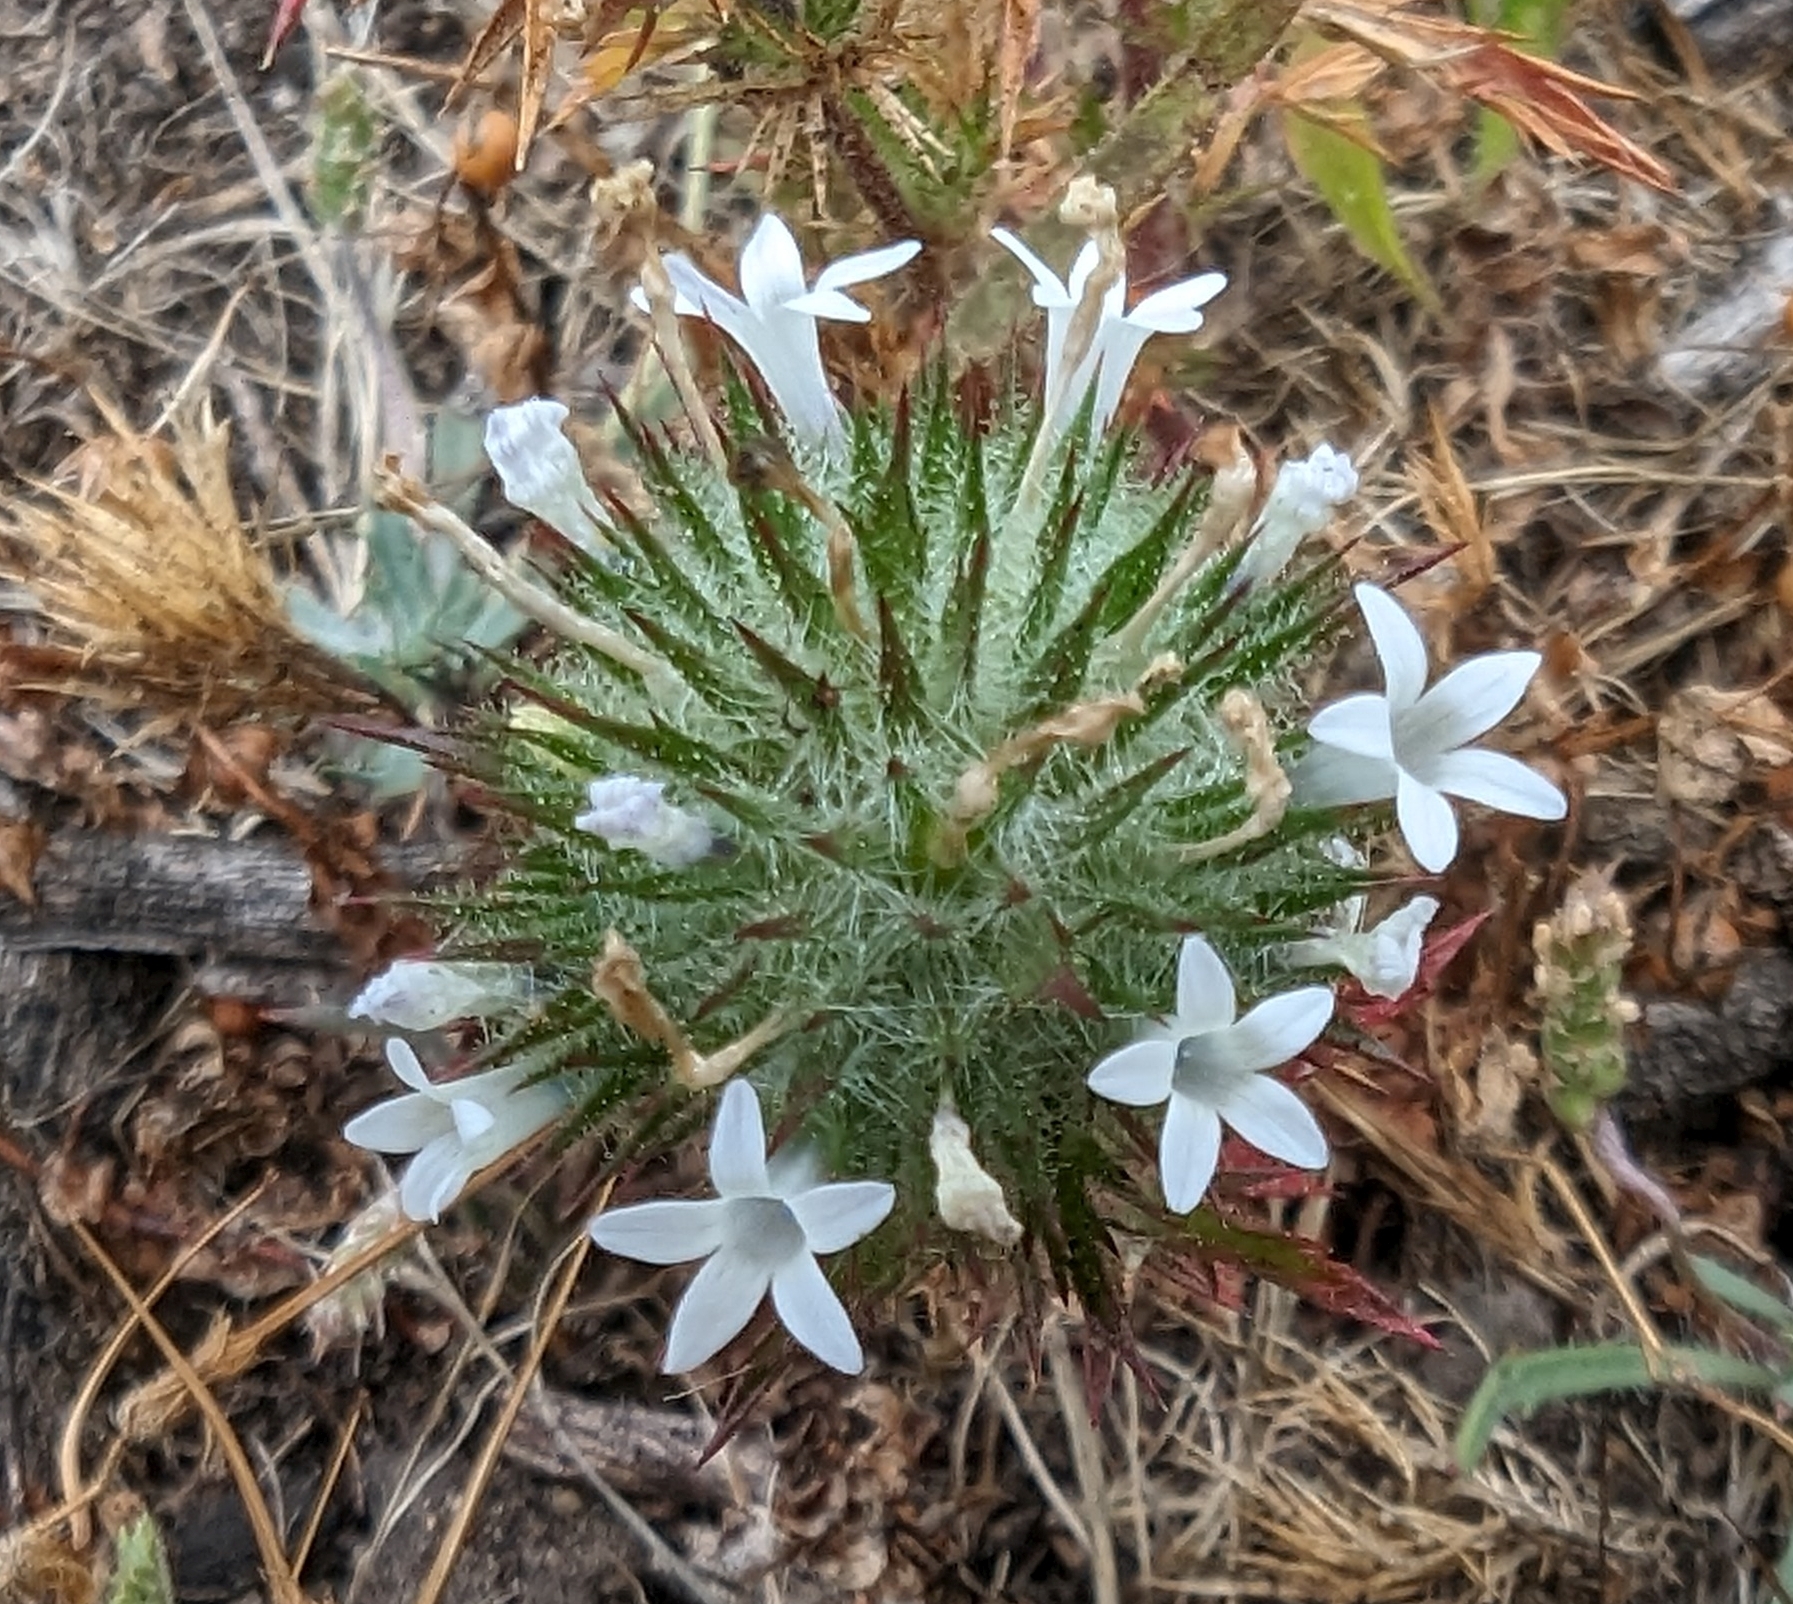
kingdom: Plantae
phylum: Tracheophyta
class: Magnoliopsida
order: Ericales
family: Polemoniaceae
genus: Navarretia
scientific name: Navarretia squarrosa
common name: Skunkweed
